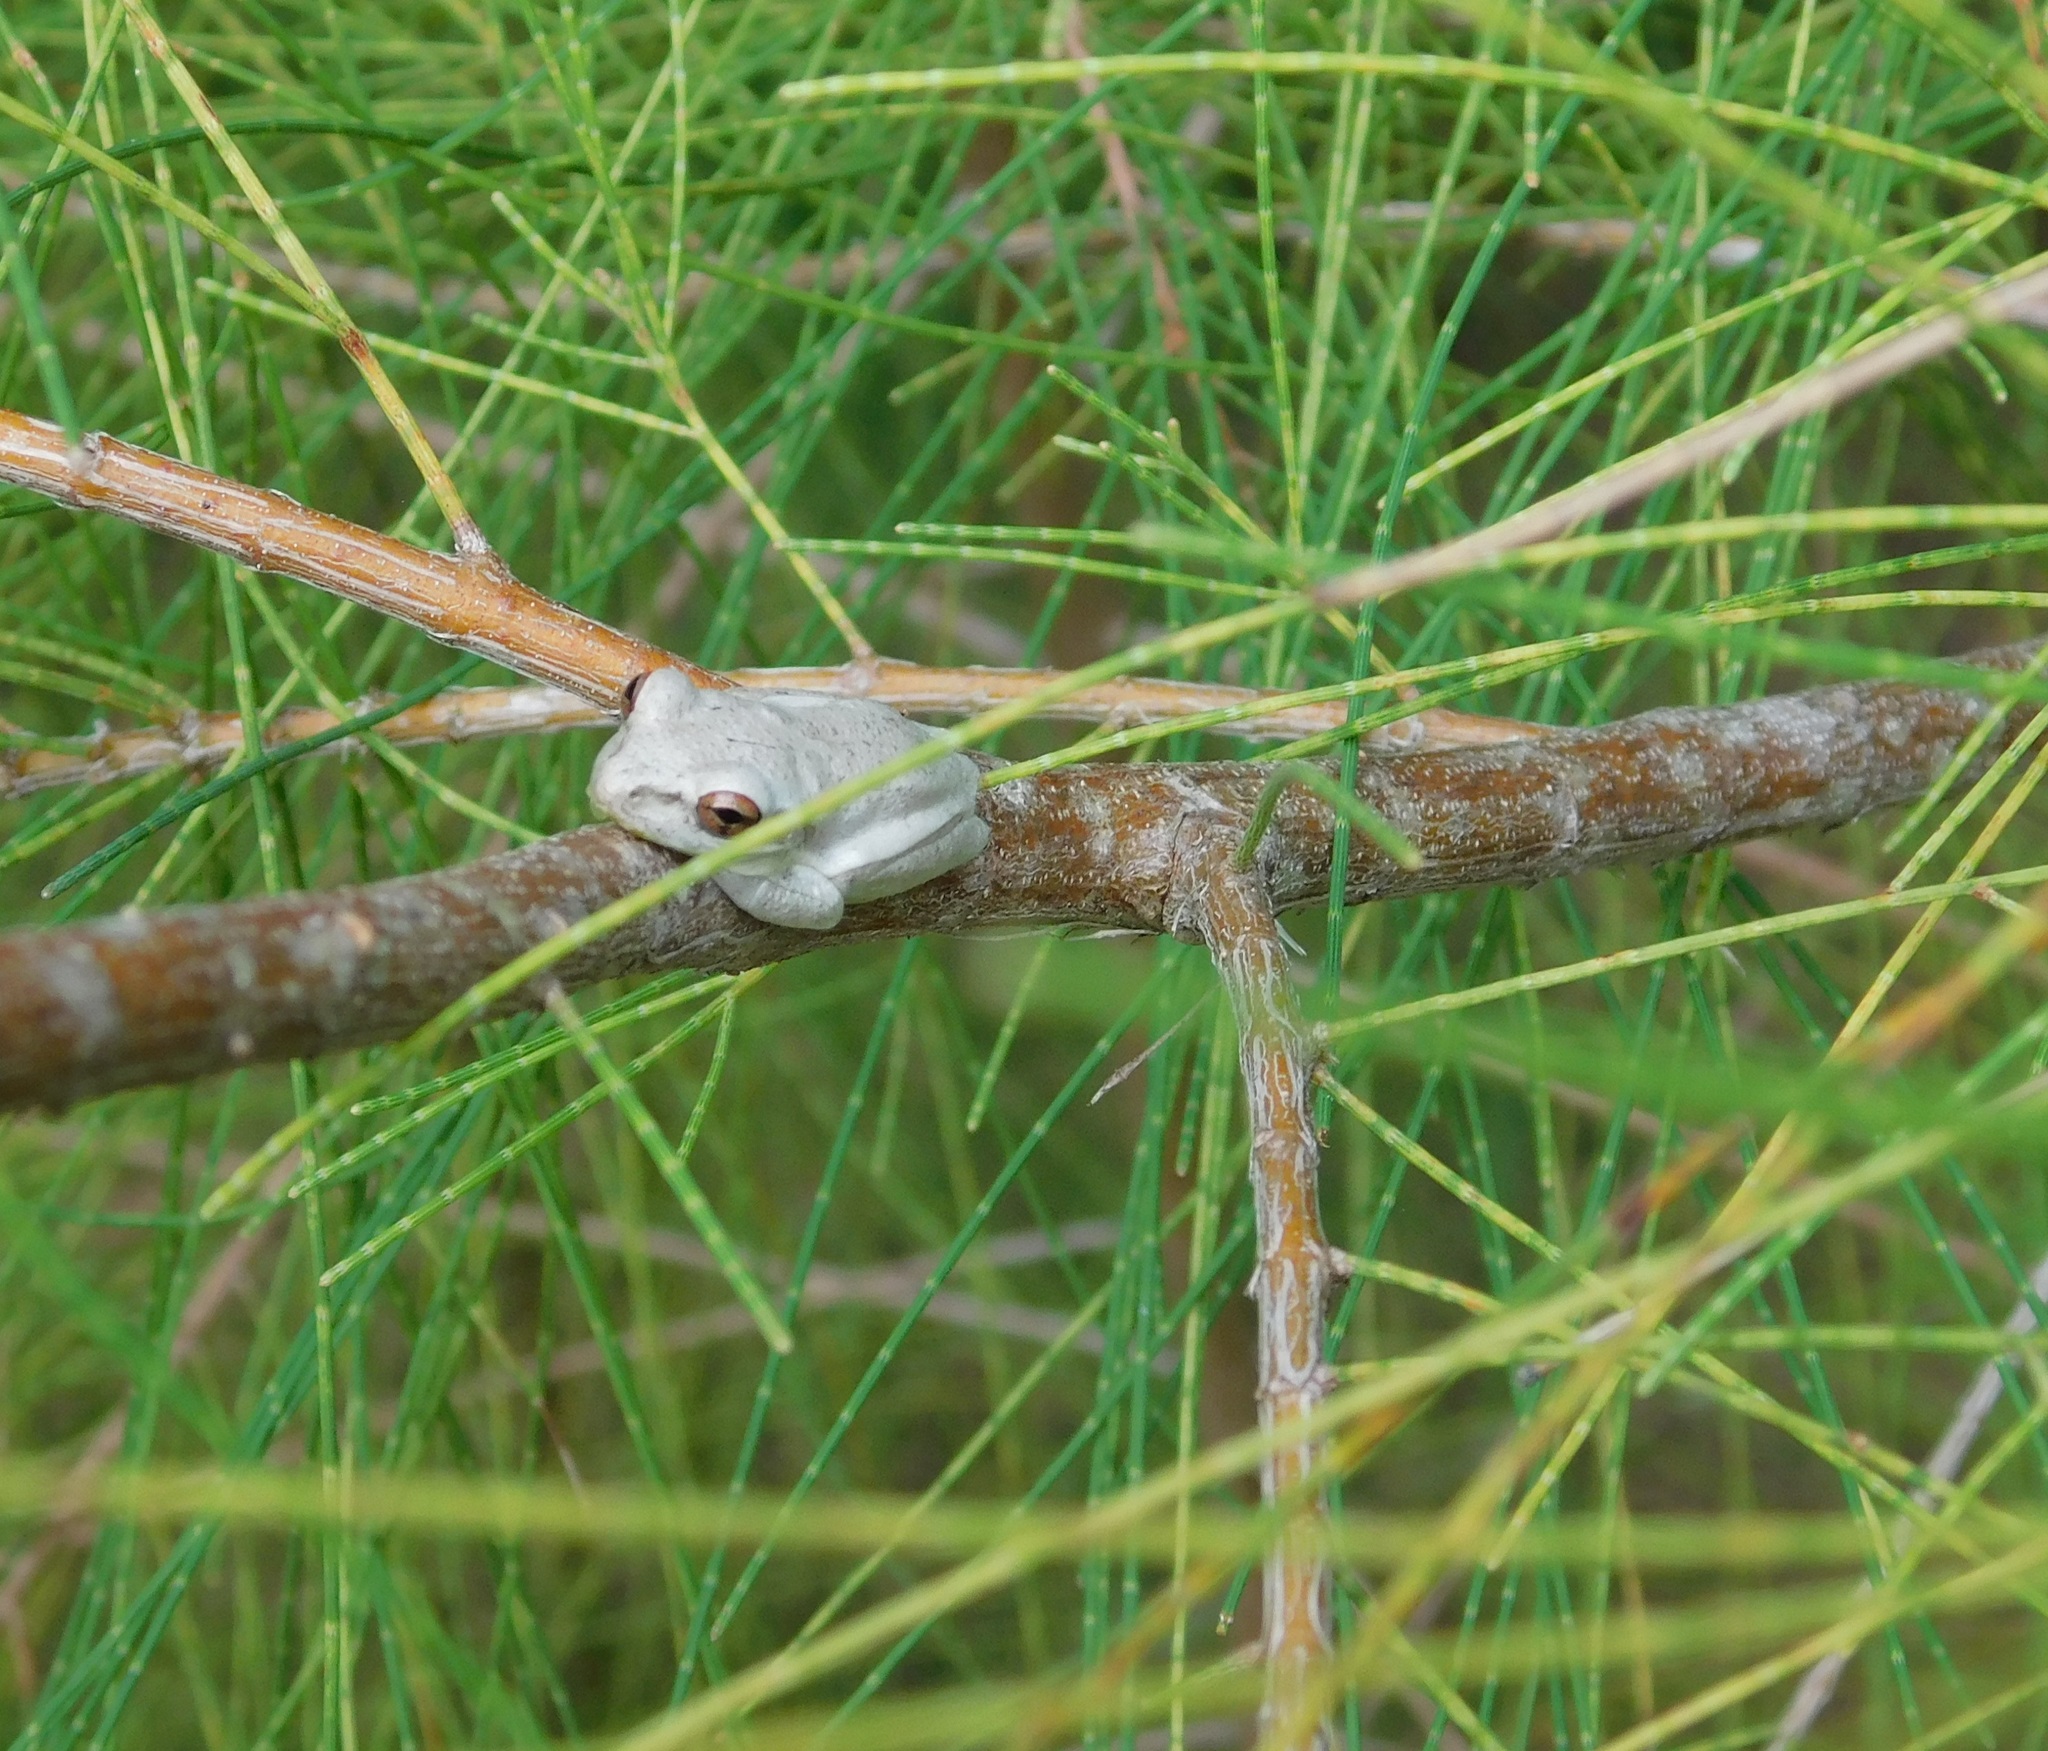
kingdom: Animalia
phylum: Chordata
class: Amphibia
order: Anura
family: Hylidae
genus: Osteopilus
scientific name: Osteopilus septentrionalis
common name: Cuban treefrog
